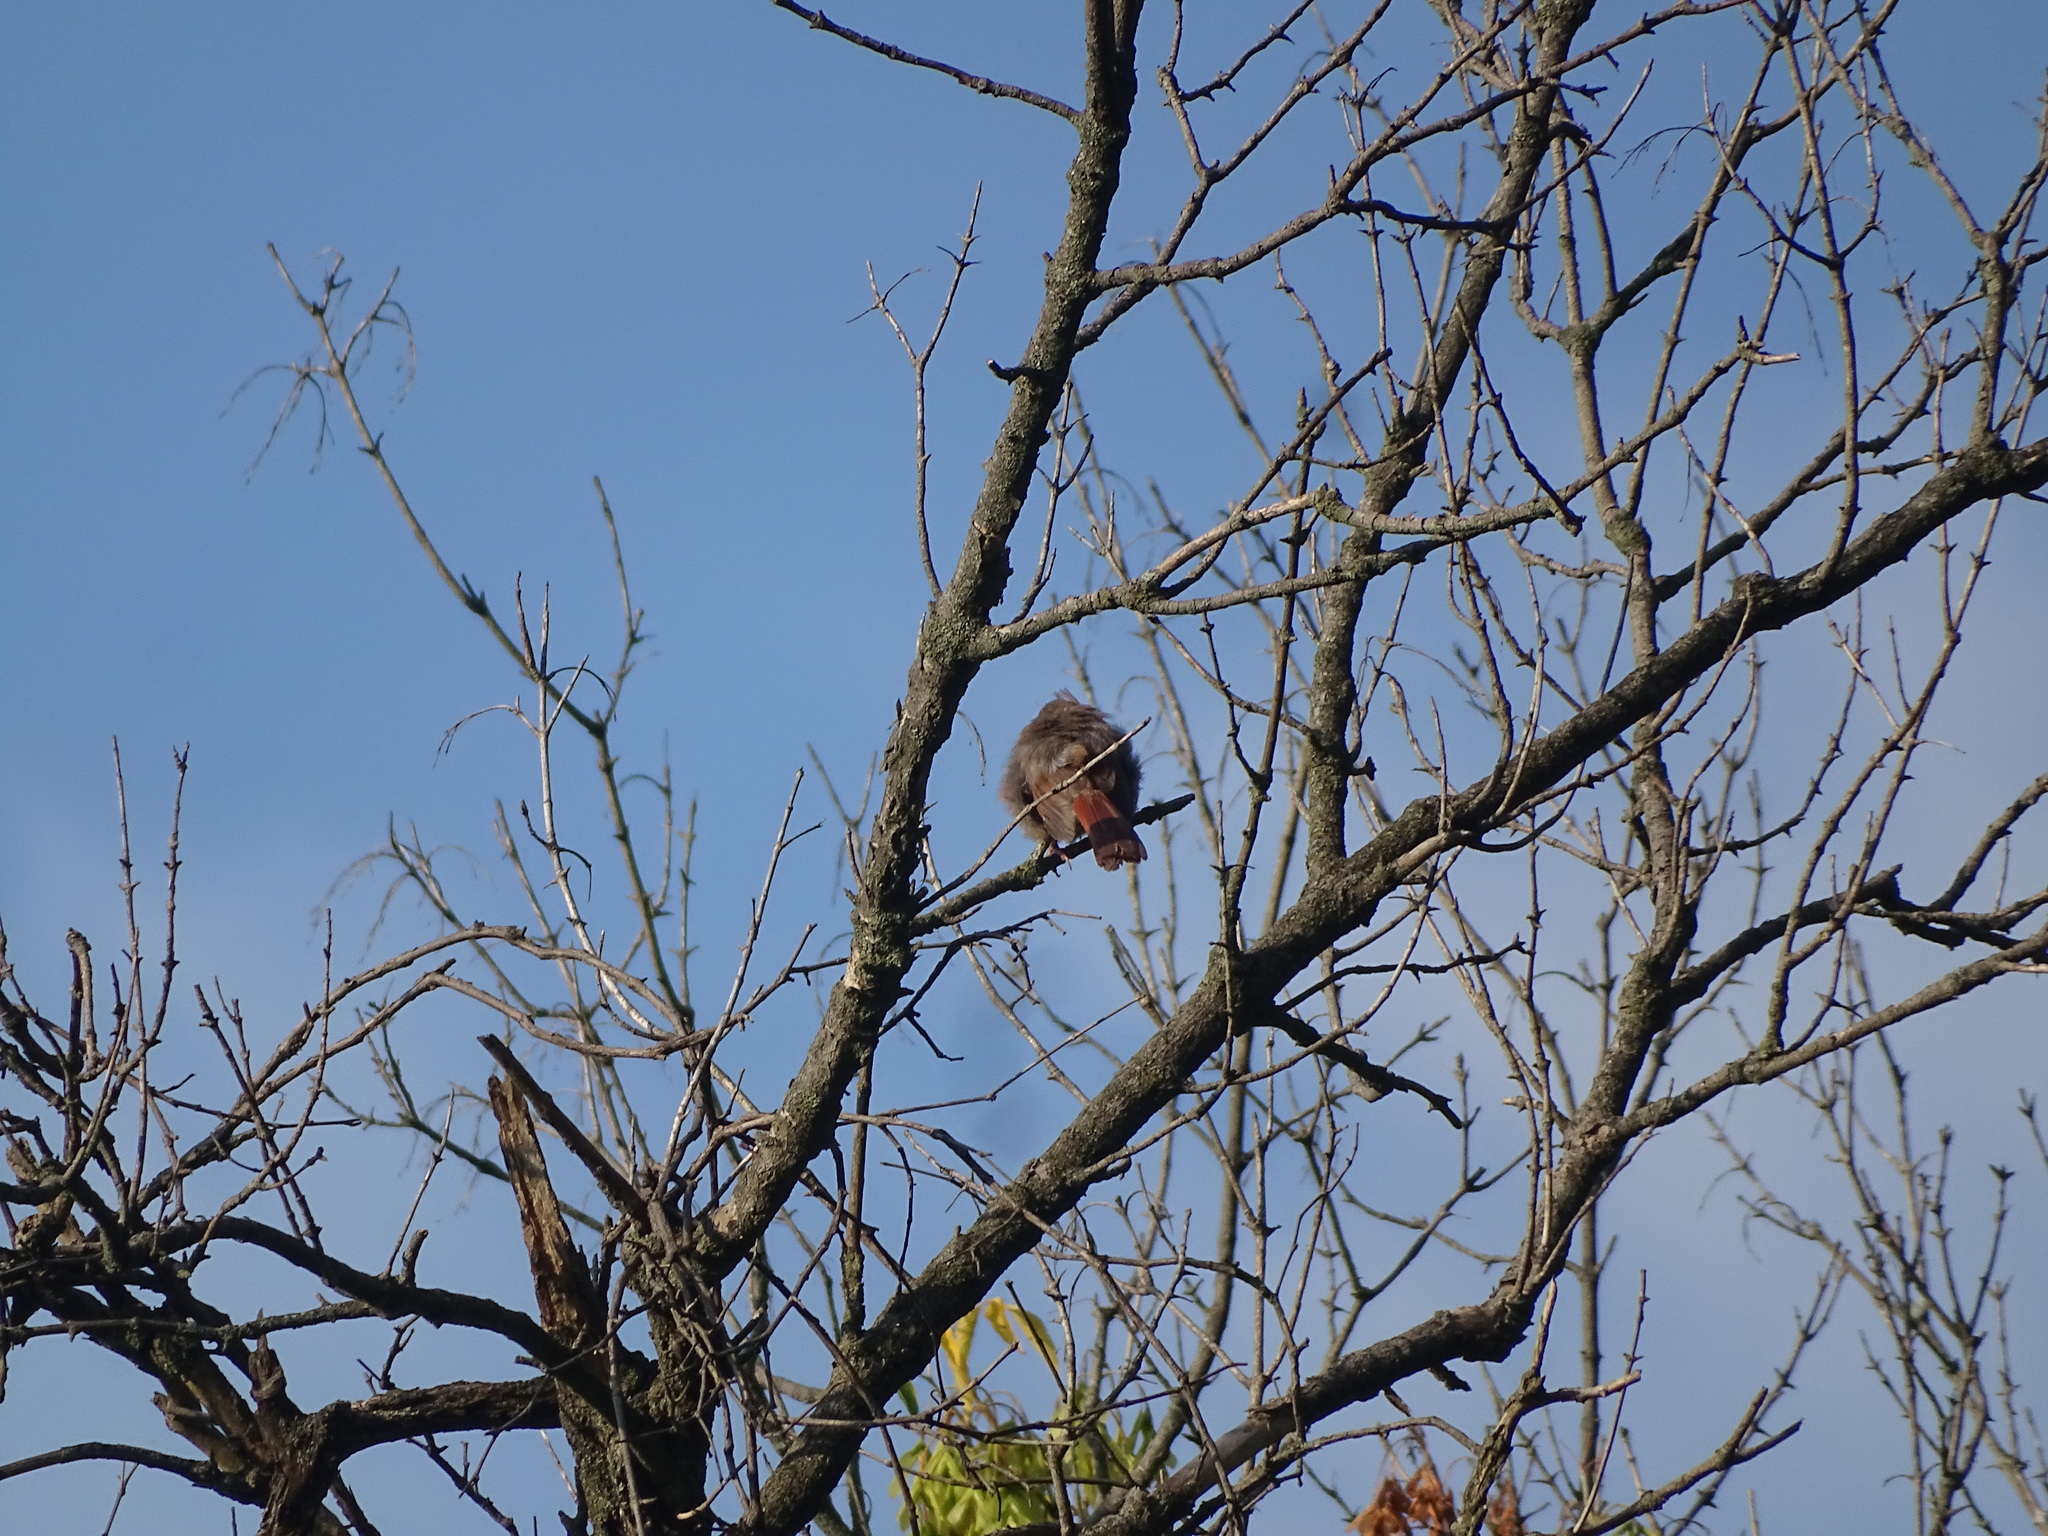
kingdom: Animalia
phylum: Chordata
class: Aves
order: Passeriformes
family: Cardinalidae
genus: Cardinalis
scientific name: Cardinalis cardinalis
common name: Northern cardinal
